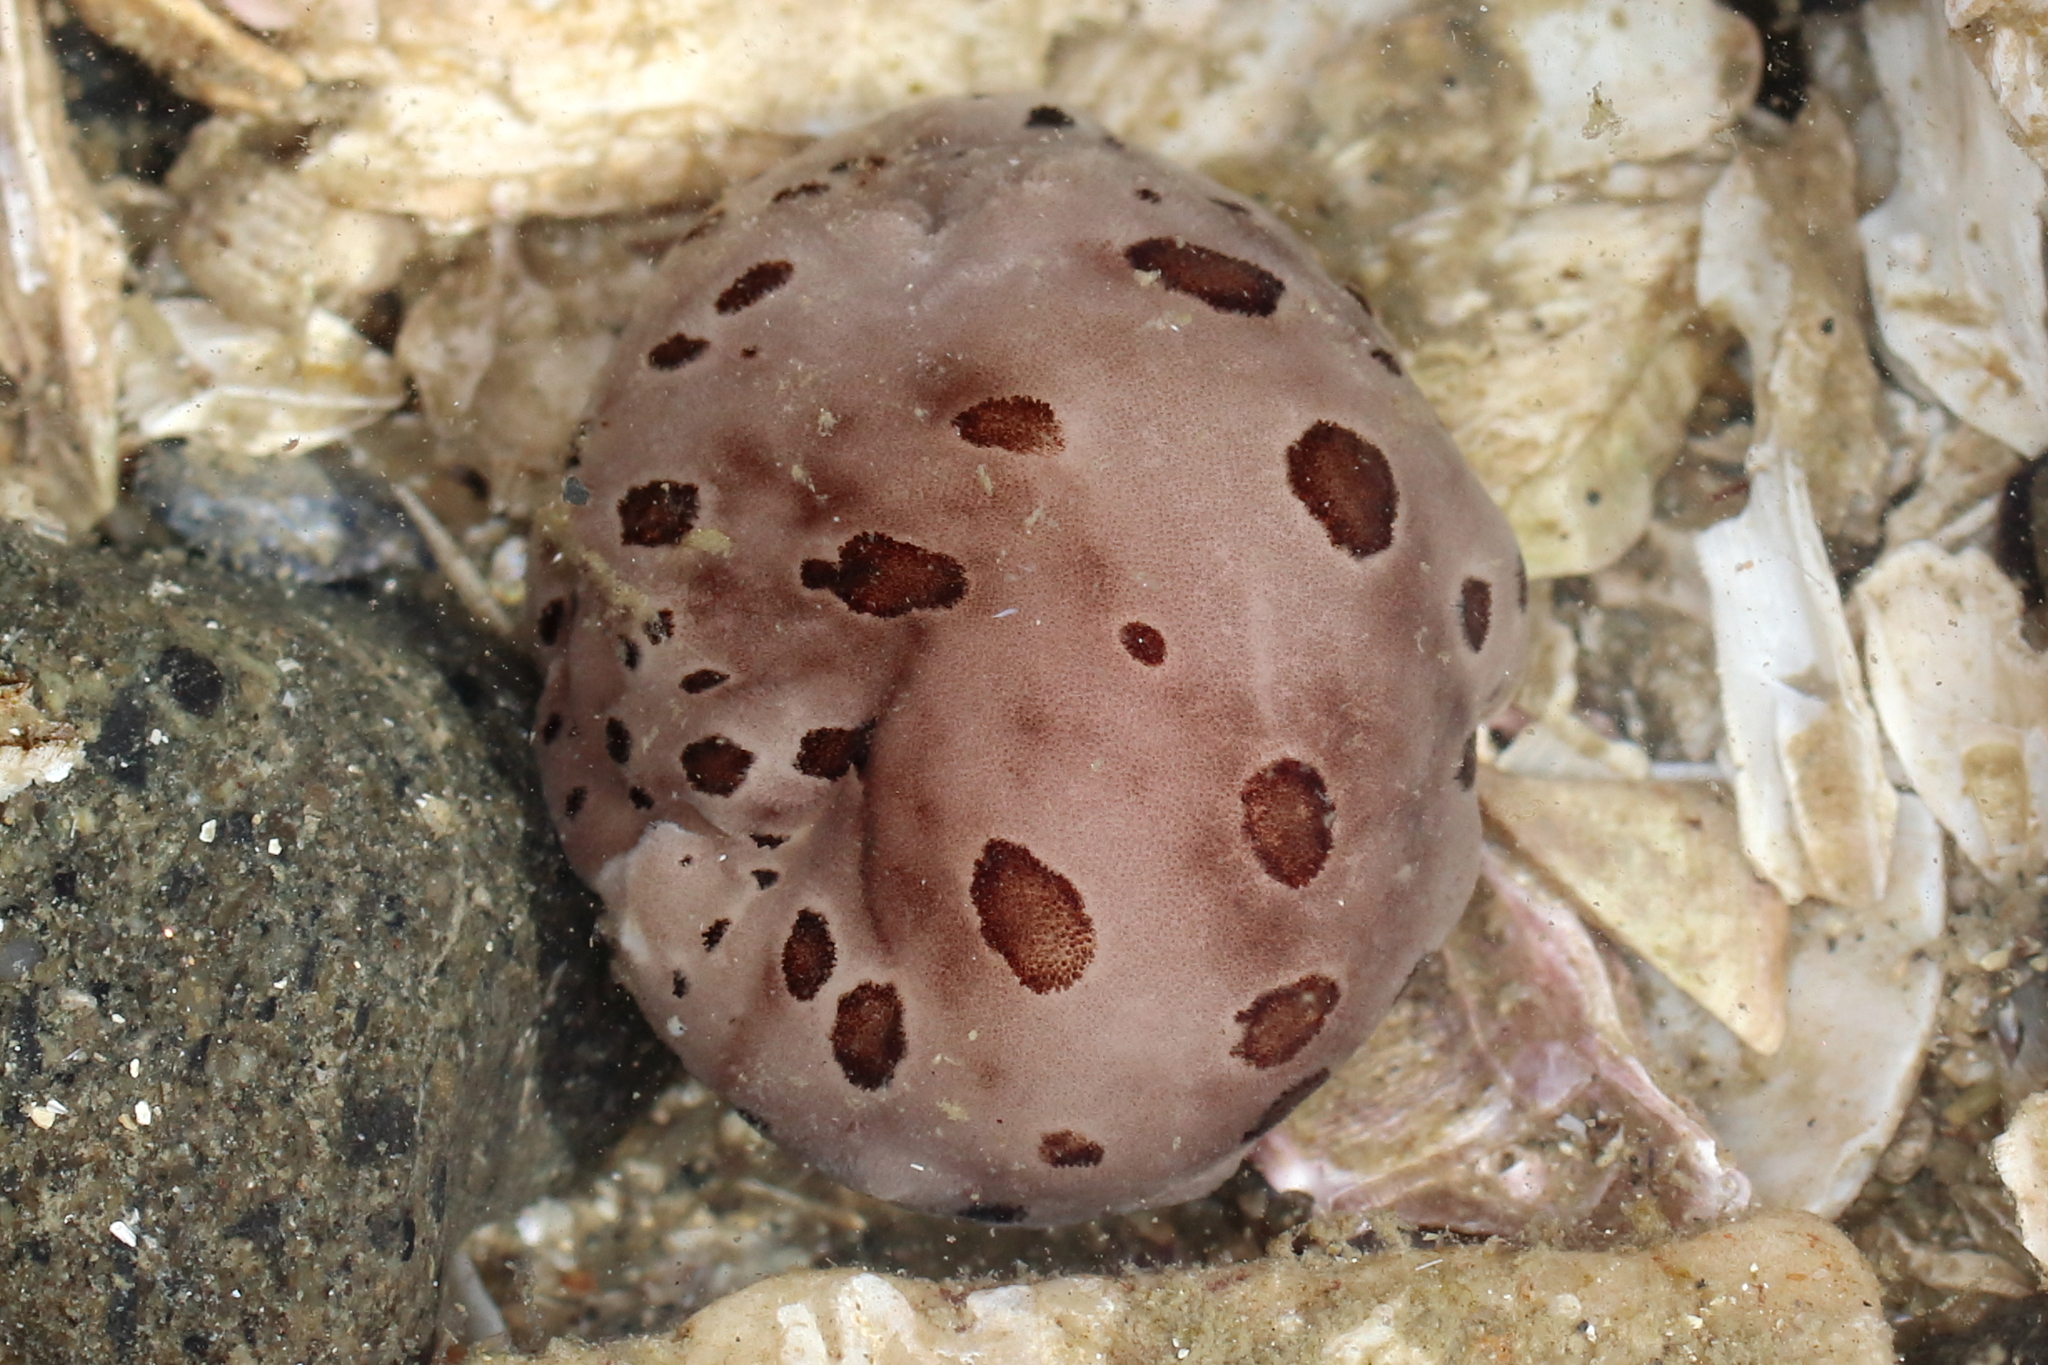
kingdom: Animalia
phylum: Mollusca
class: Gastropoda
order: Nudibranchia
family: Discodorididae
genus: Diaulula
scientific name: Diaulula odonoghuei
